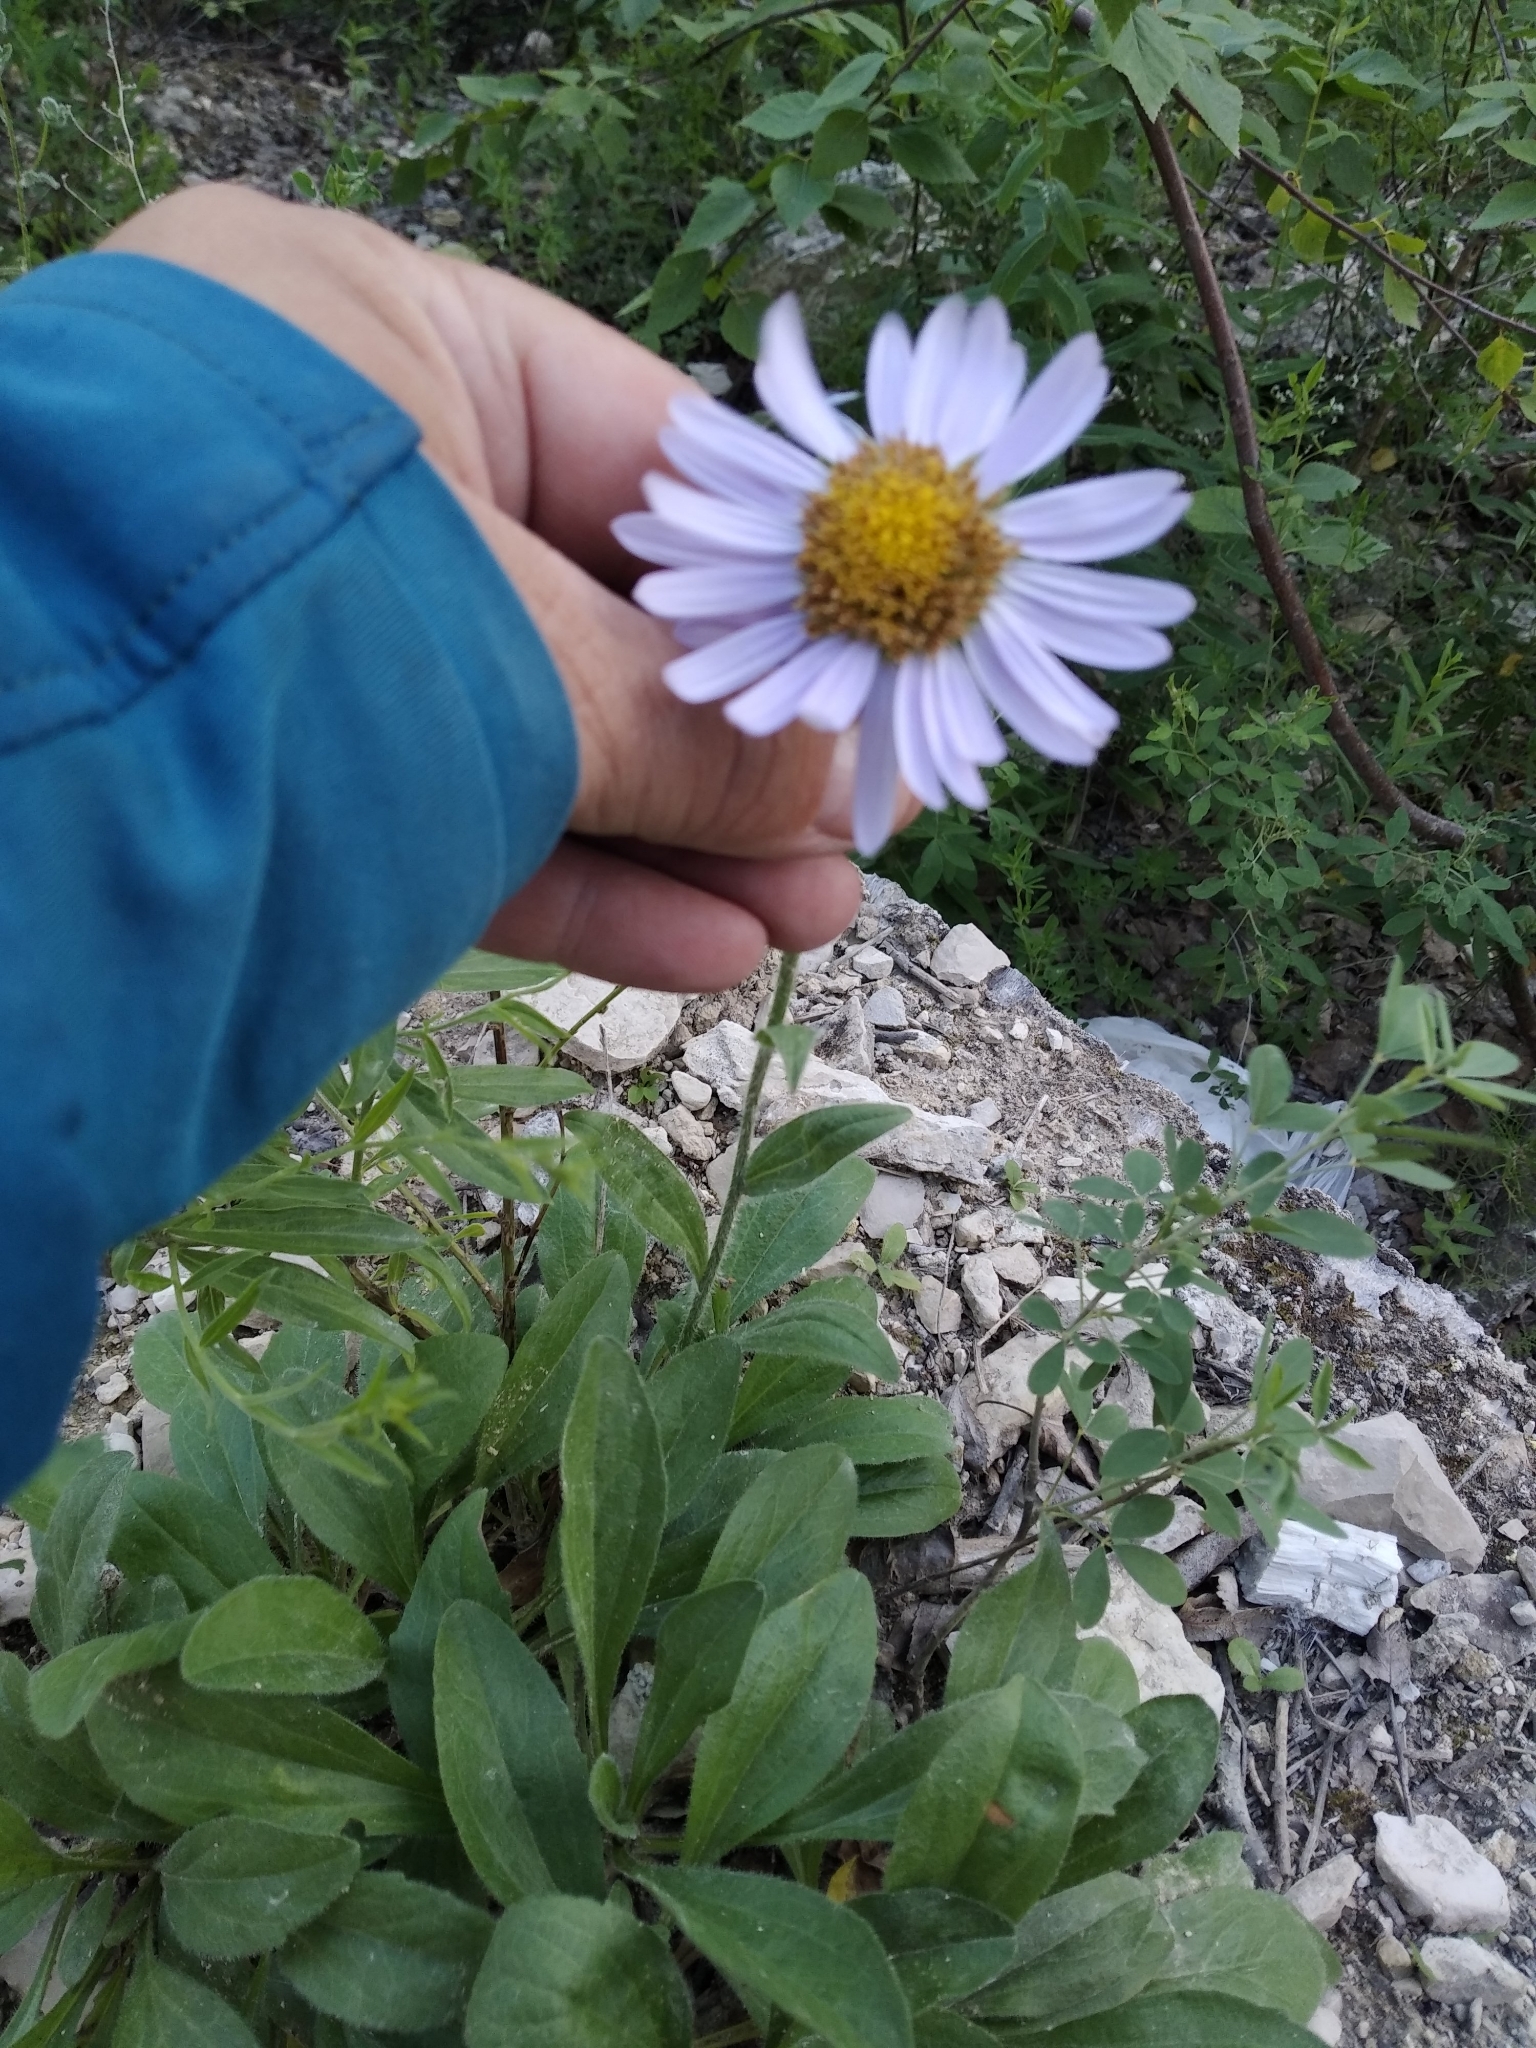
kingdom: Plantae
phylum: Tracheophyta
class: Magnoliopsida
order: Asterales
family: Asteraceae
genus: Aster
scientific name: Aster alpinus
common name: Alpine aster
